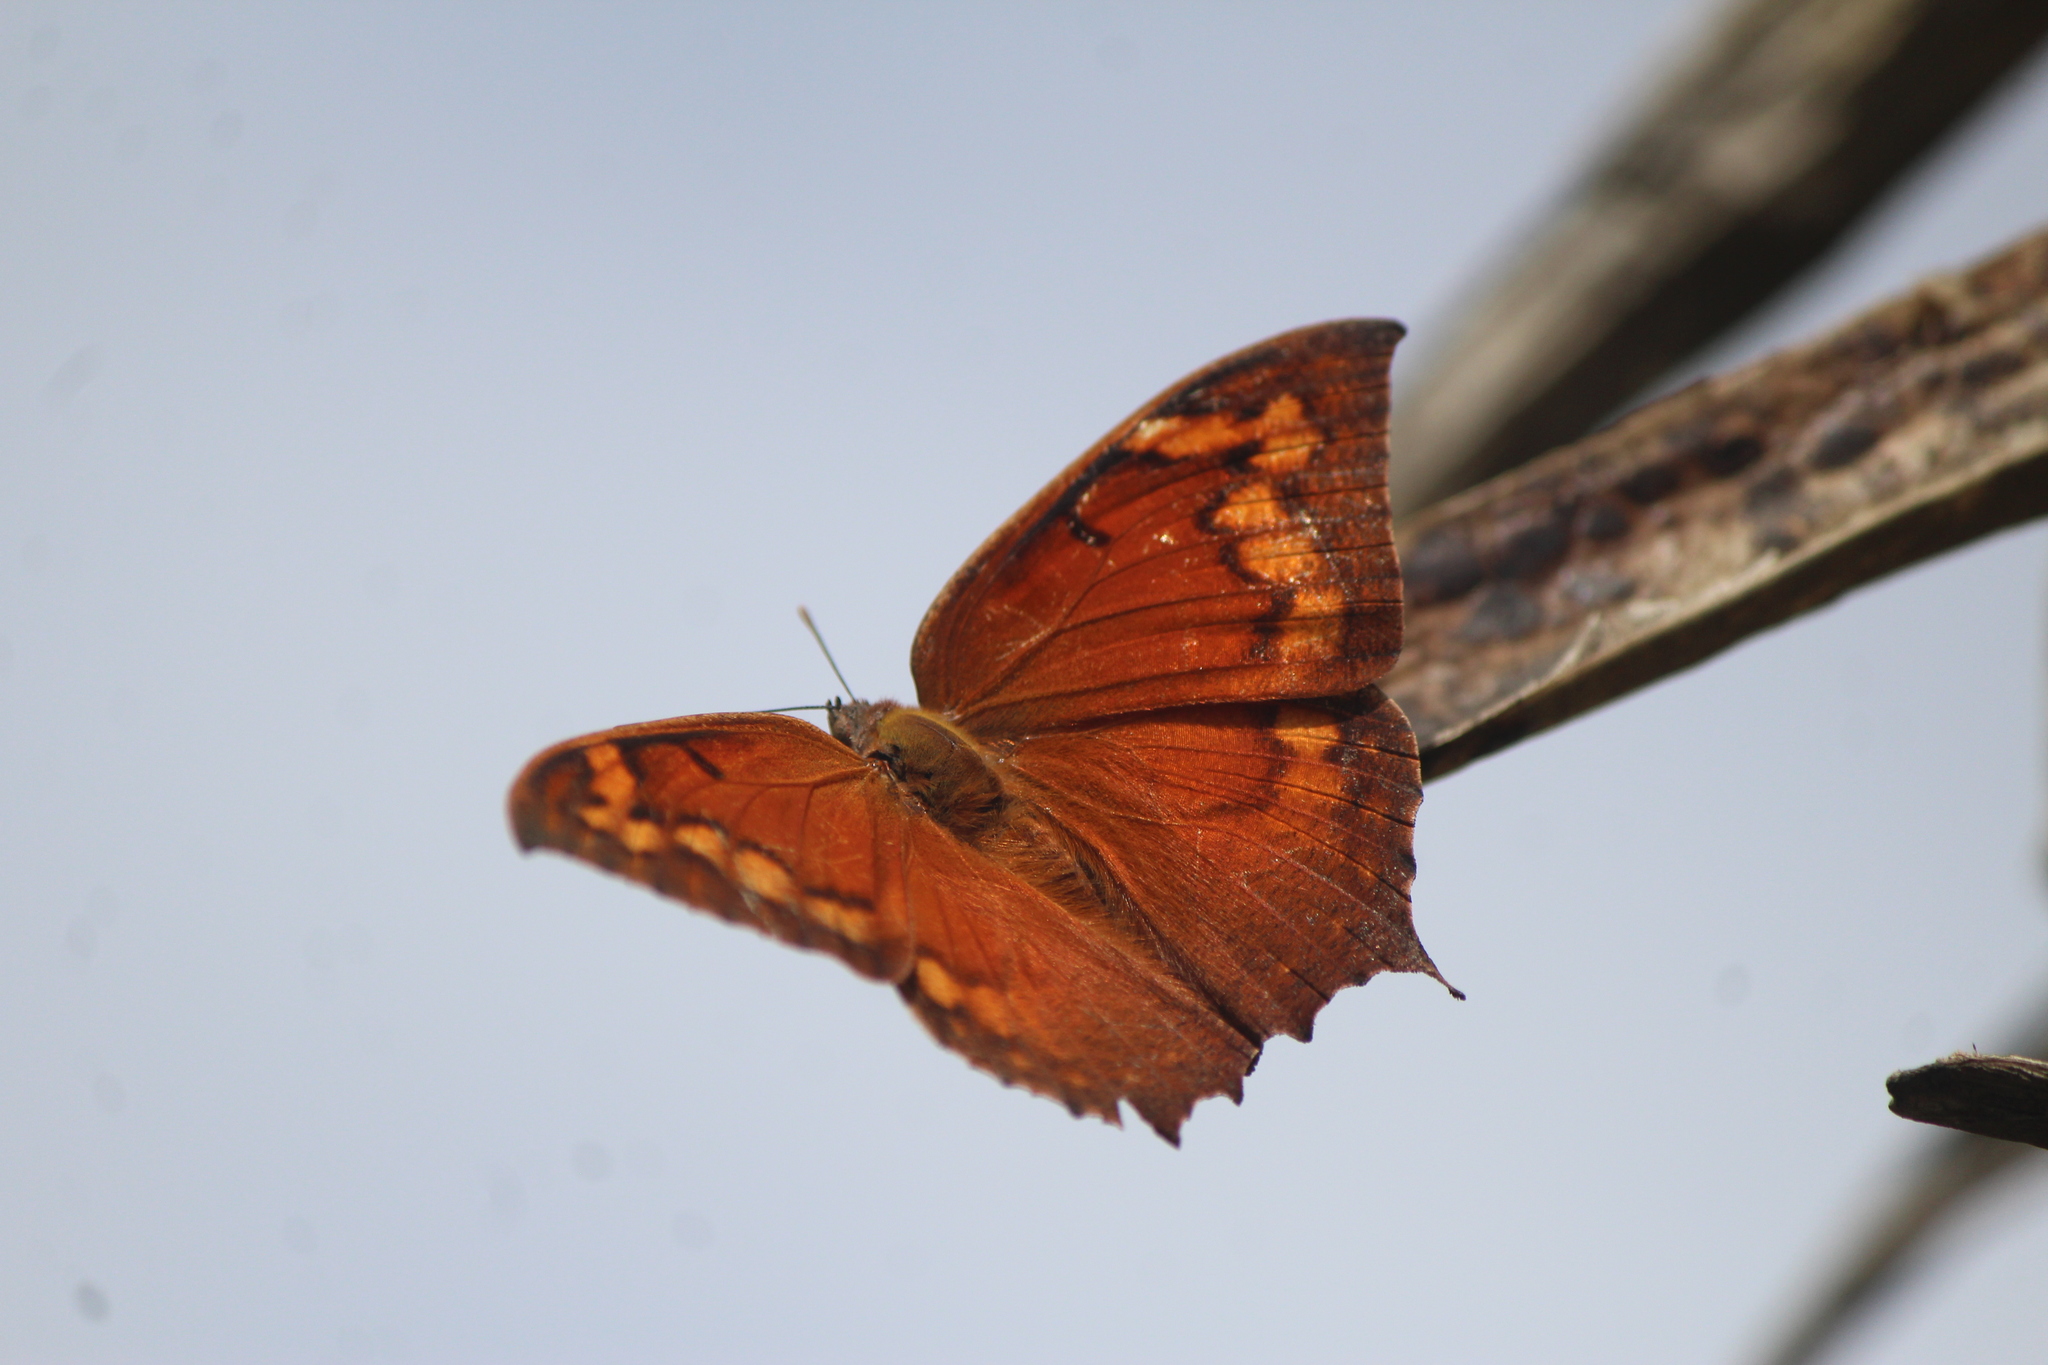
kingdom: Animalia
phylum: Arthropoda
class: Insecta
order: Lepidoptera
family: Nymphalidae
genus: Anaea
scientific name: Anaea aidea
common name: Tropical leafwing
